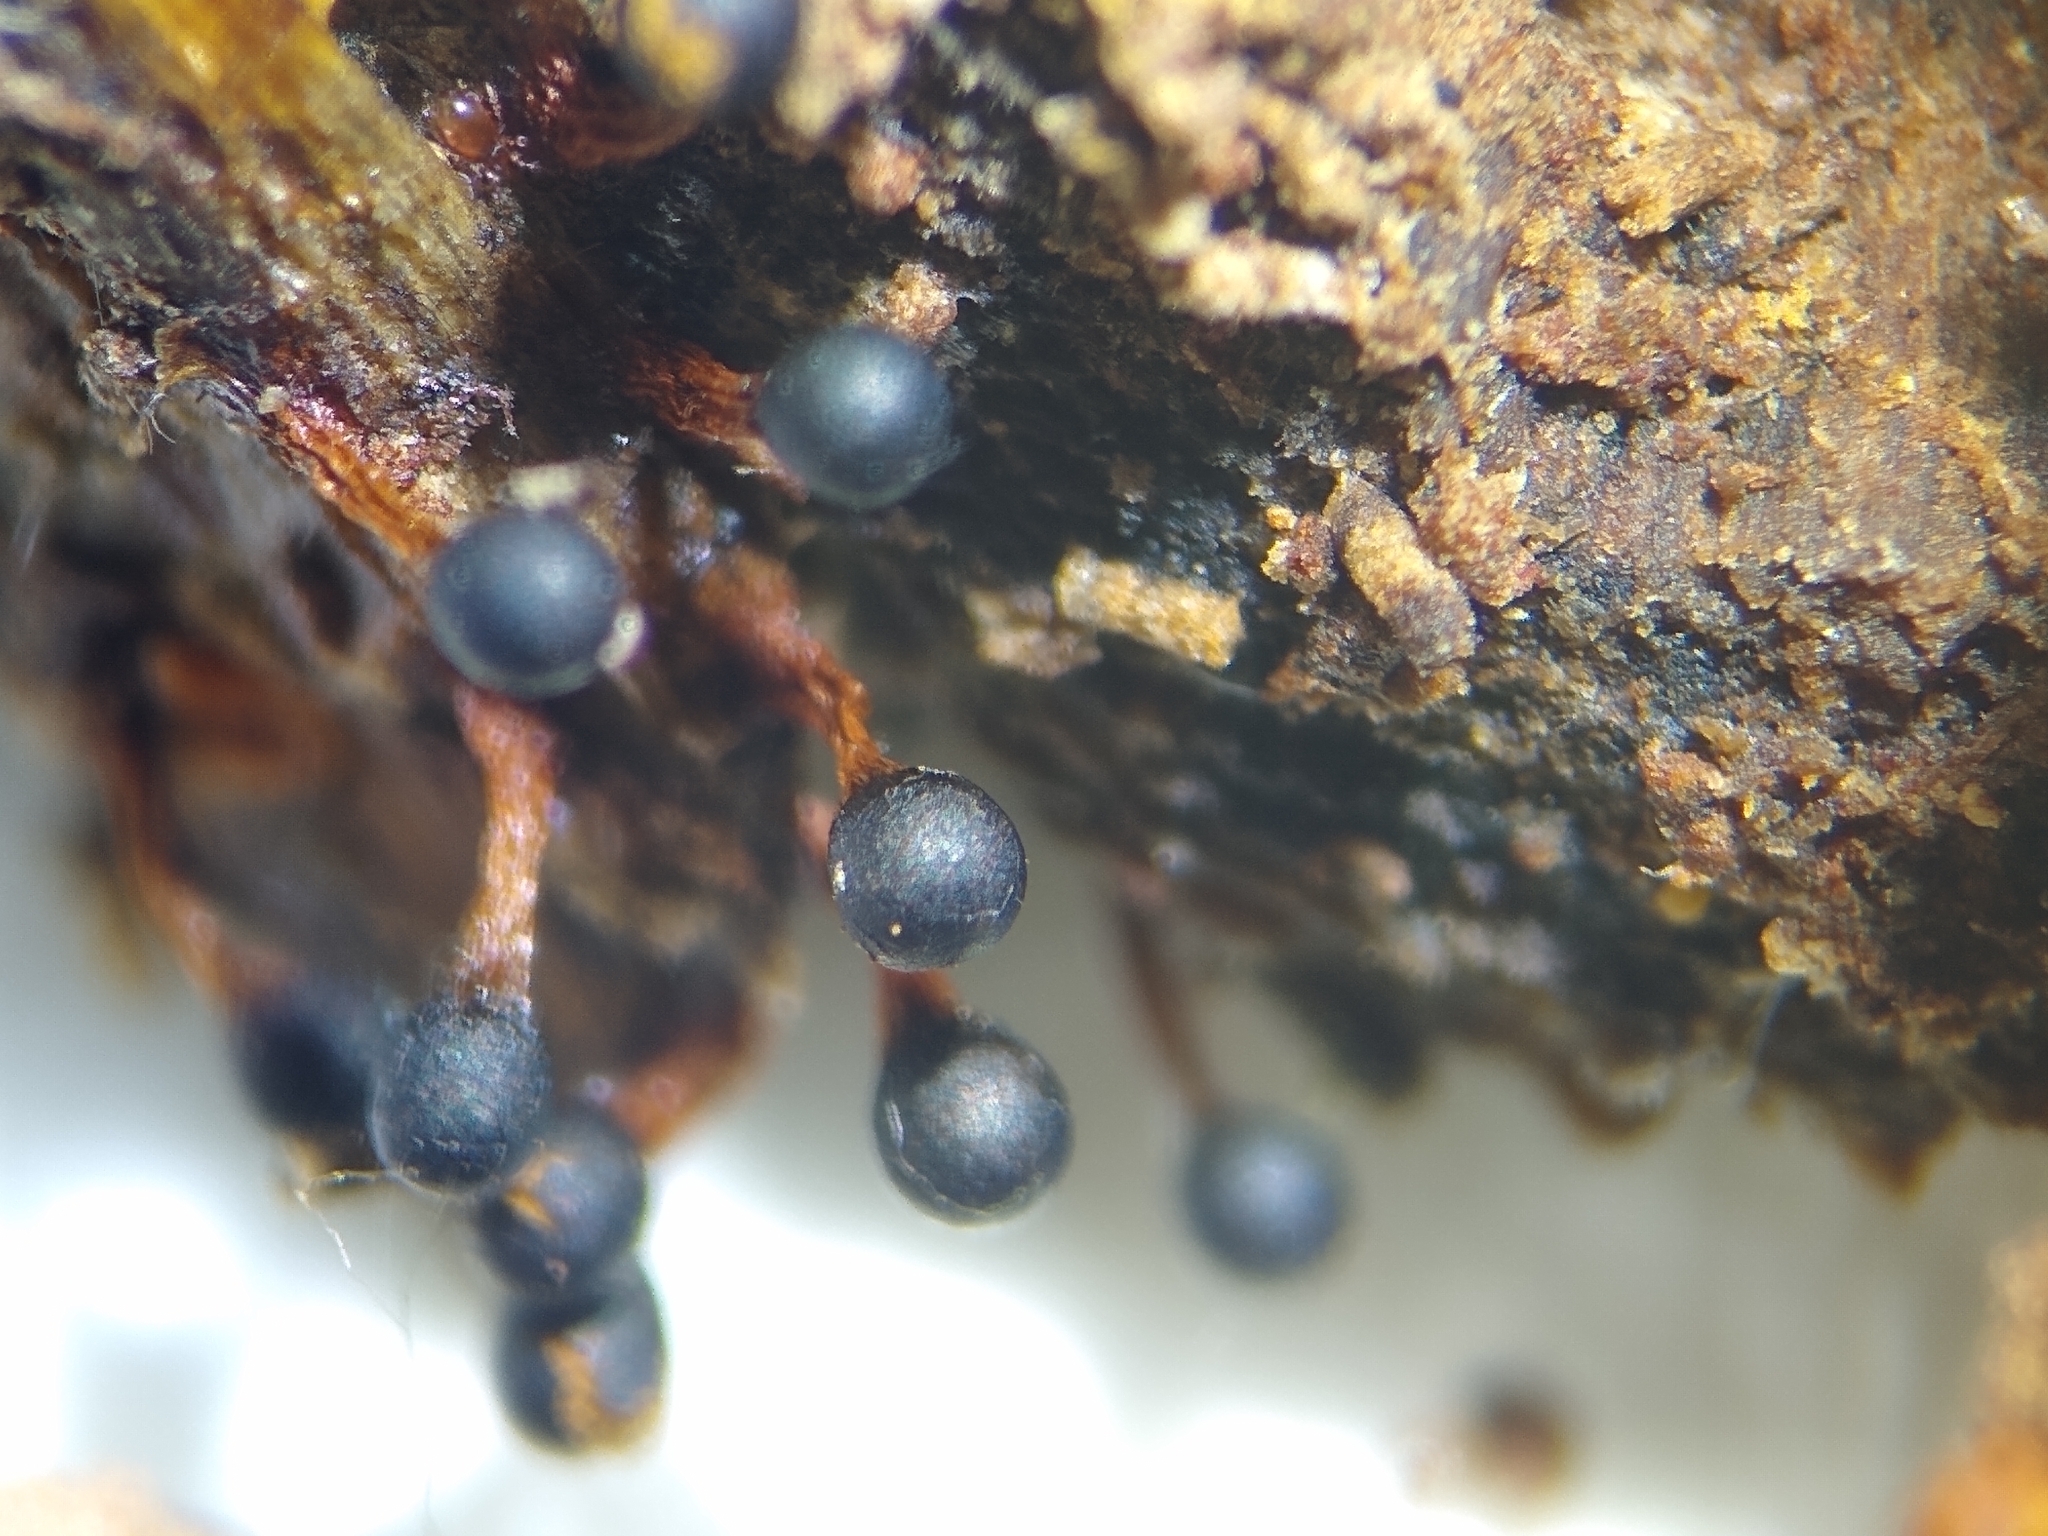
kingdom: Protozoa
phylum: Mycetozoa
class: Myxomycetes
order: Trichiales
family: Trichiaceae
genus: Metatrichia
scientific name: Metatrichia floriformis
